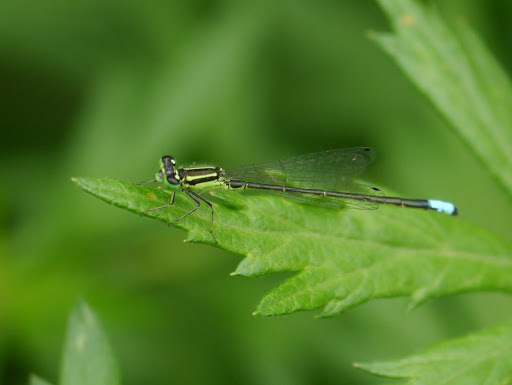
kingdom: Animalia
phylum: Arthropoda
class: Insecta
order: Odonata
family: Coenagrionidae
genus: Ischnura
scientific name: Ischnura verticalis
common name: Eastern forktail
